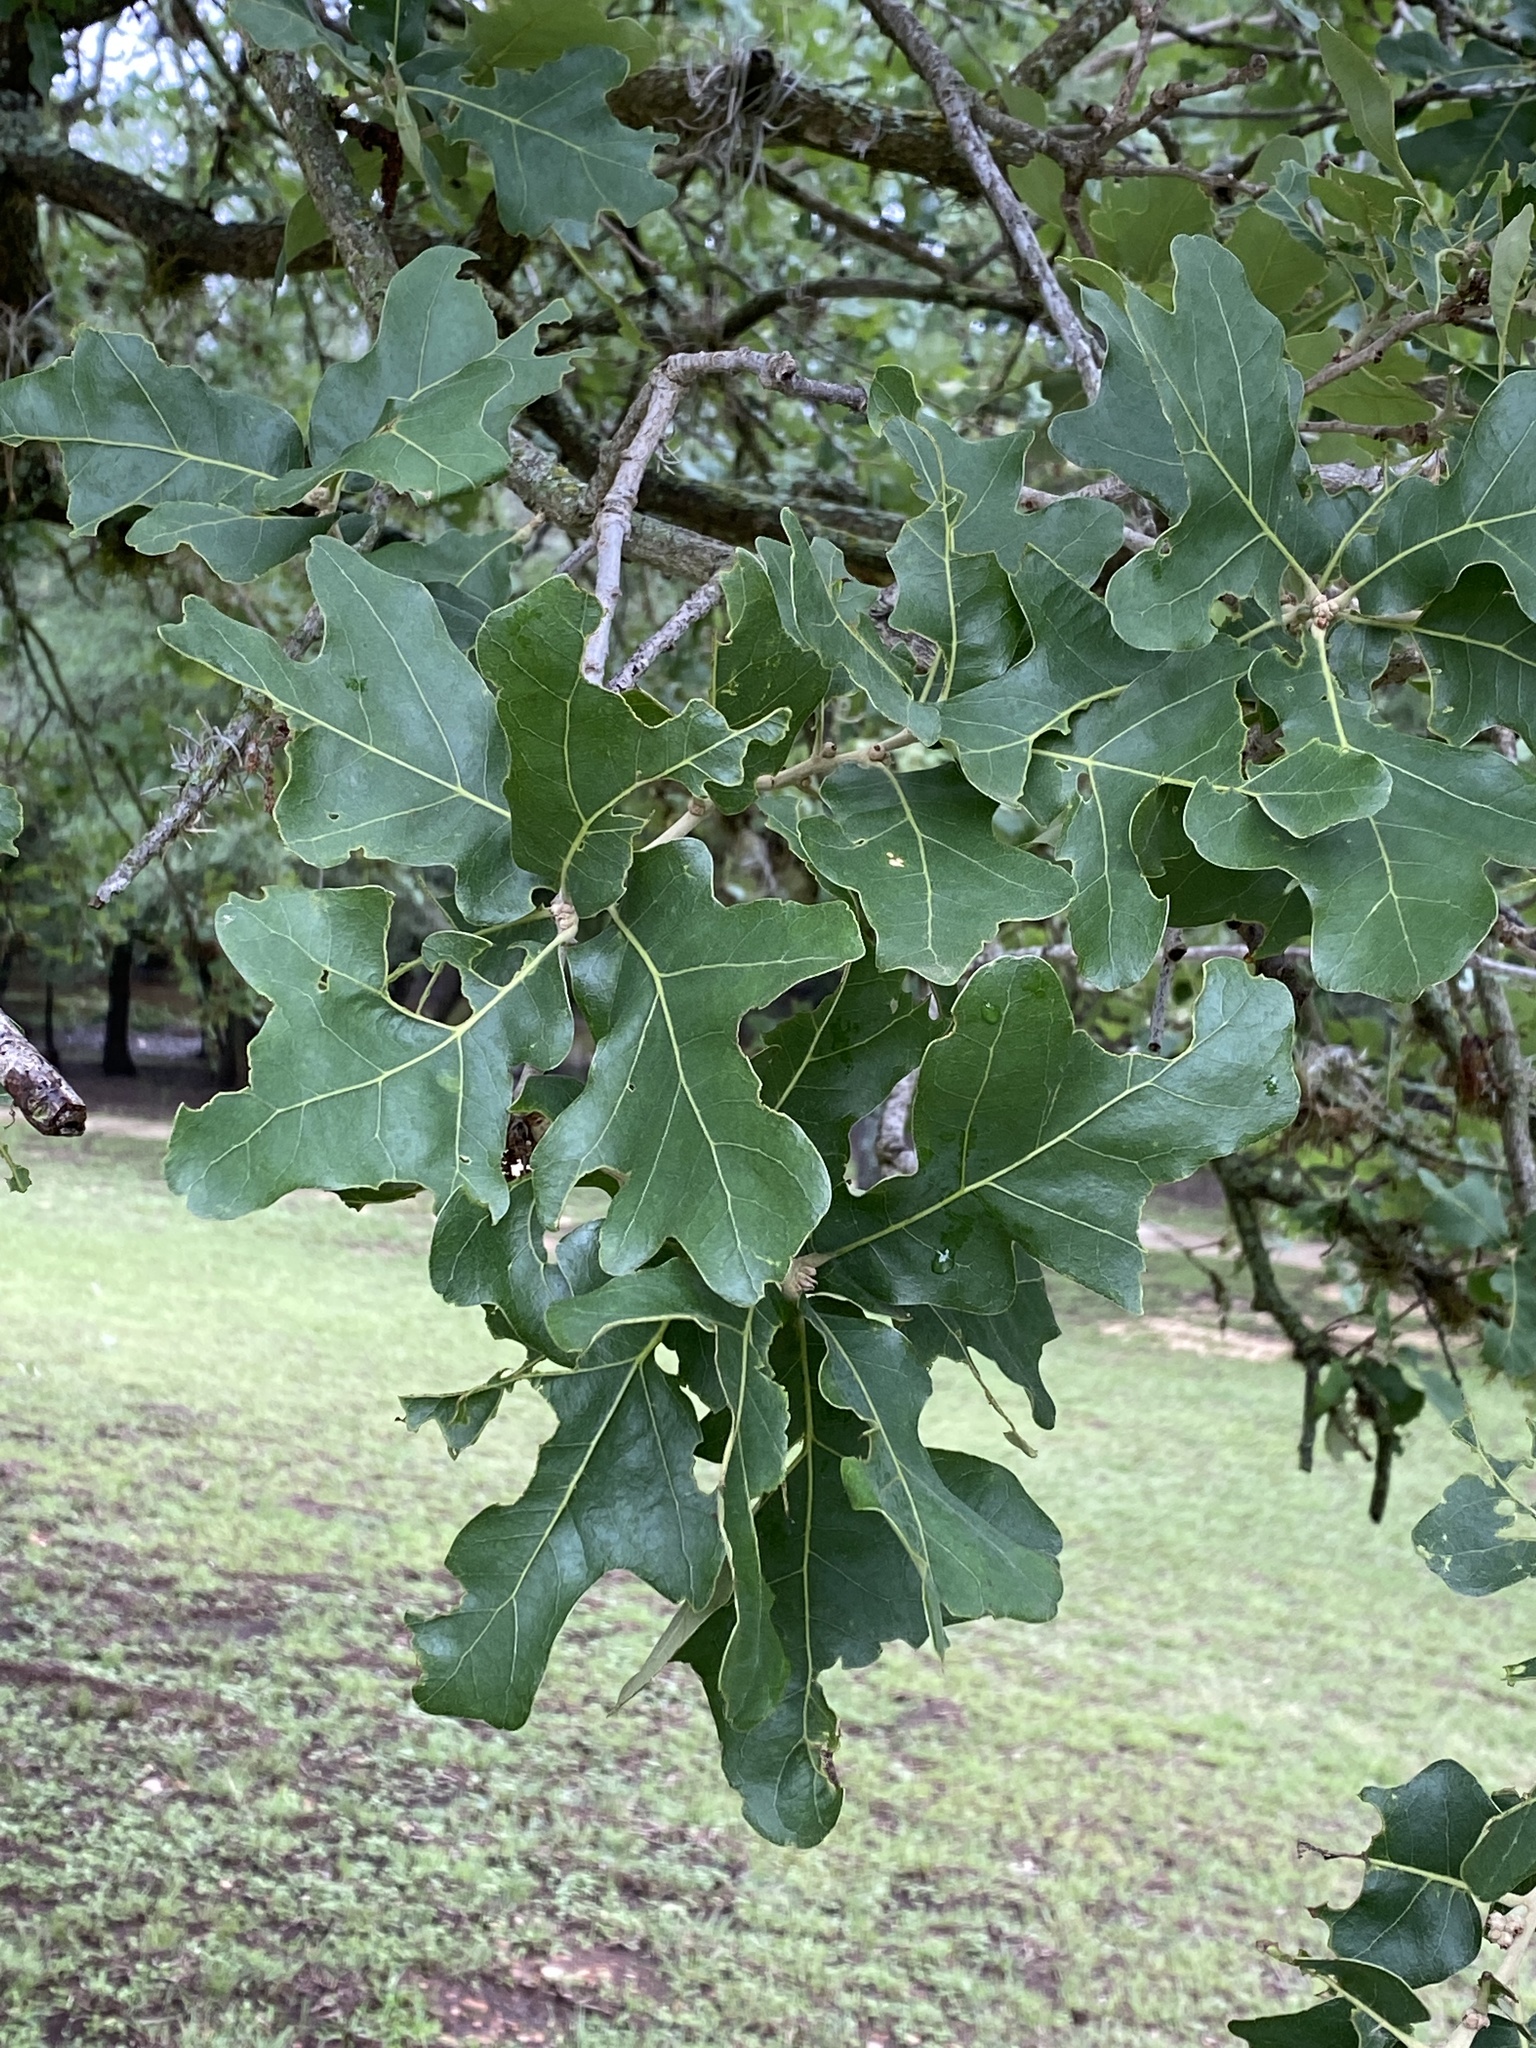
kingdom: Plantae
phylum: Tracheophyta
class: Magnoliopsida
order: Fagales
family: Fagaceae
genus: Quercus
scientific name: Quercus stellata
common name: Post oak
